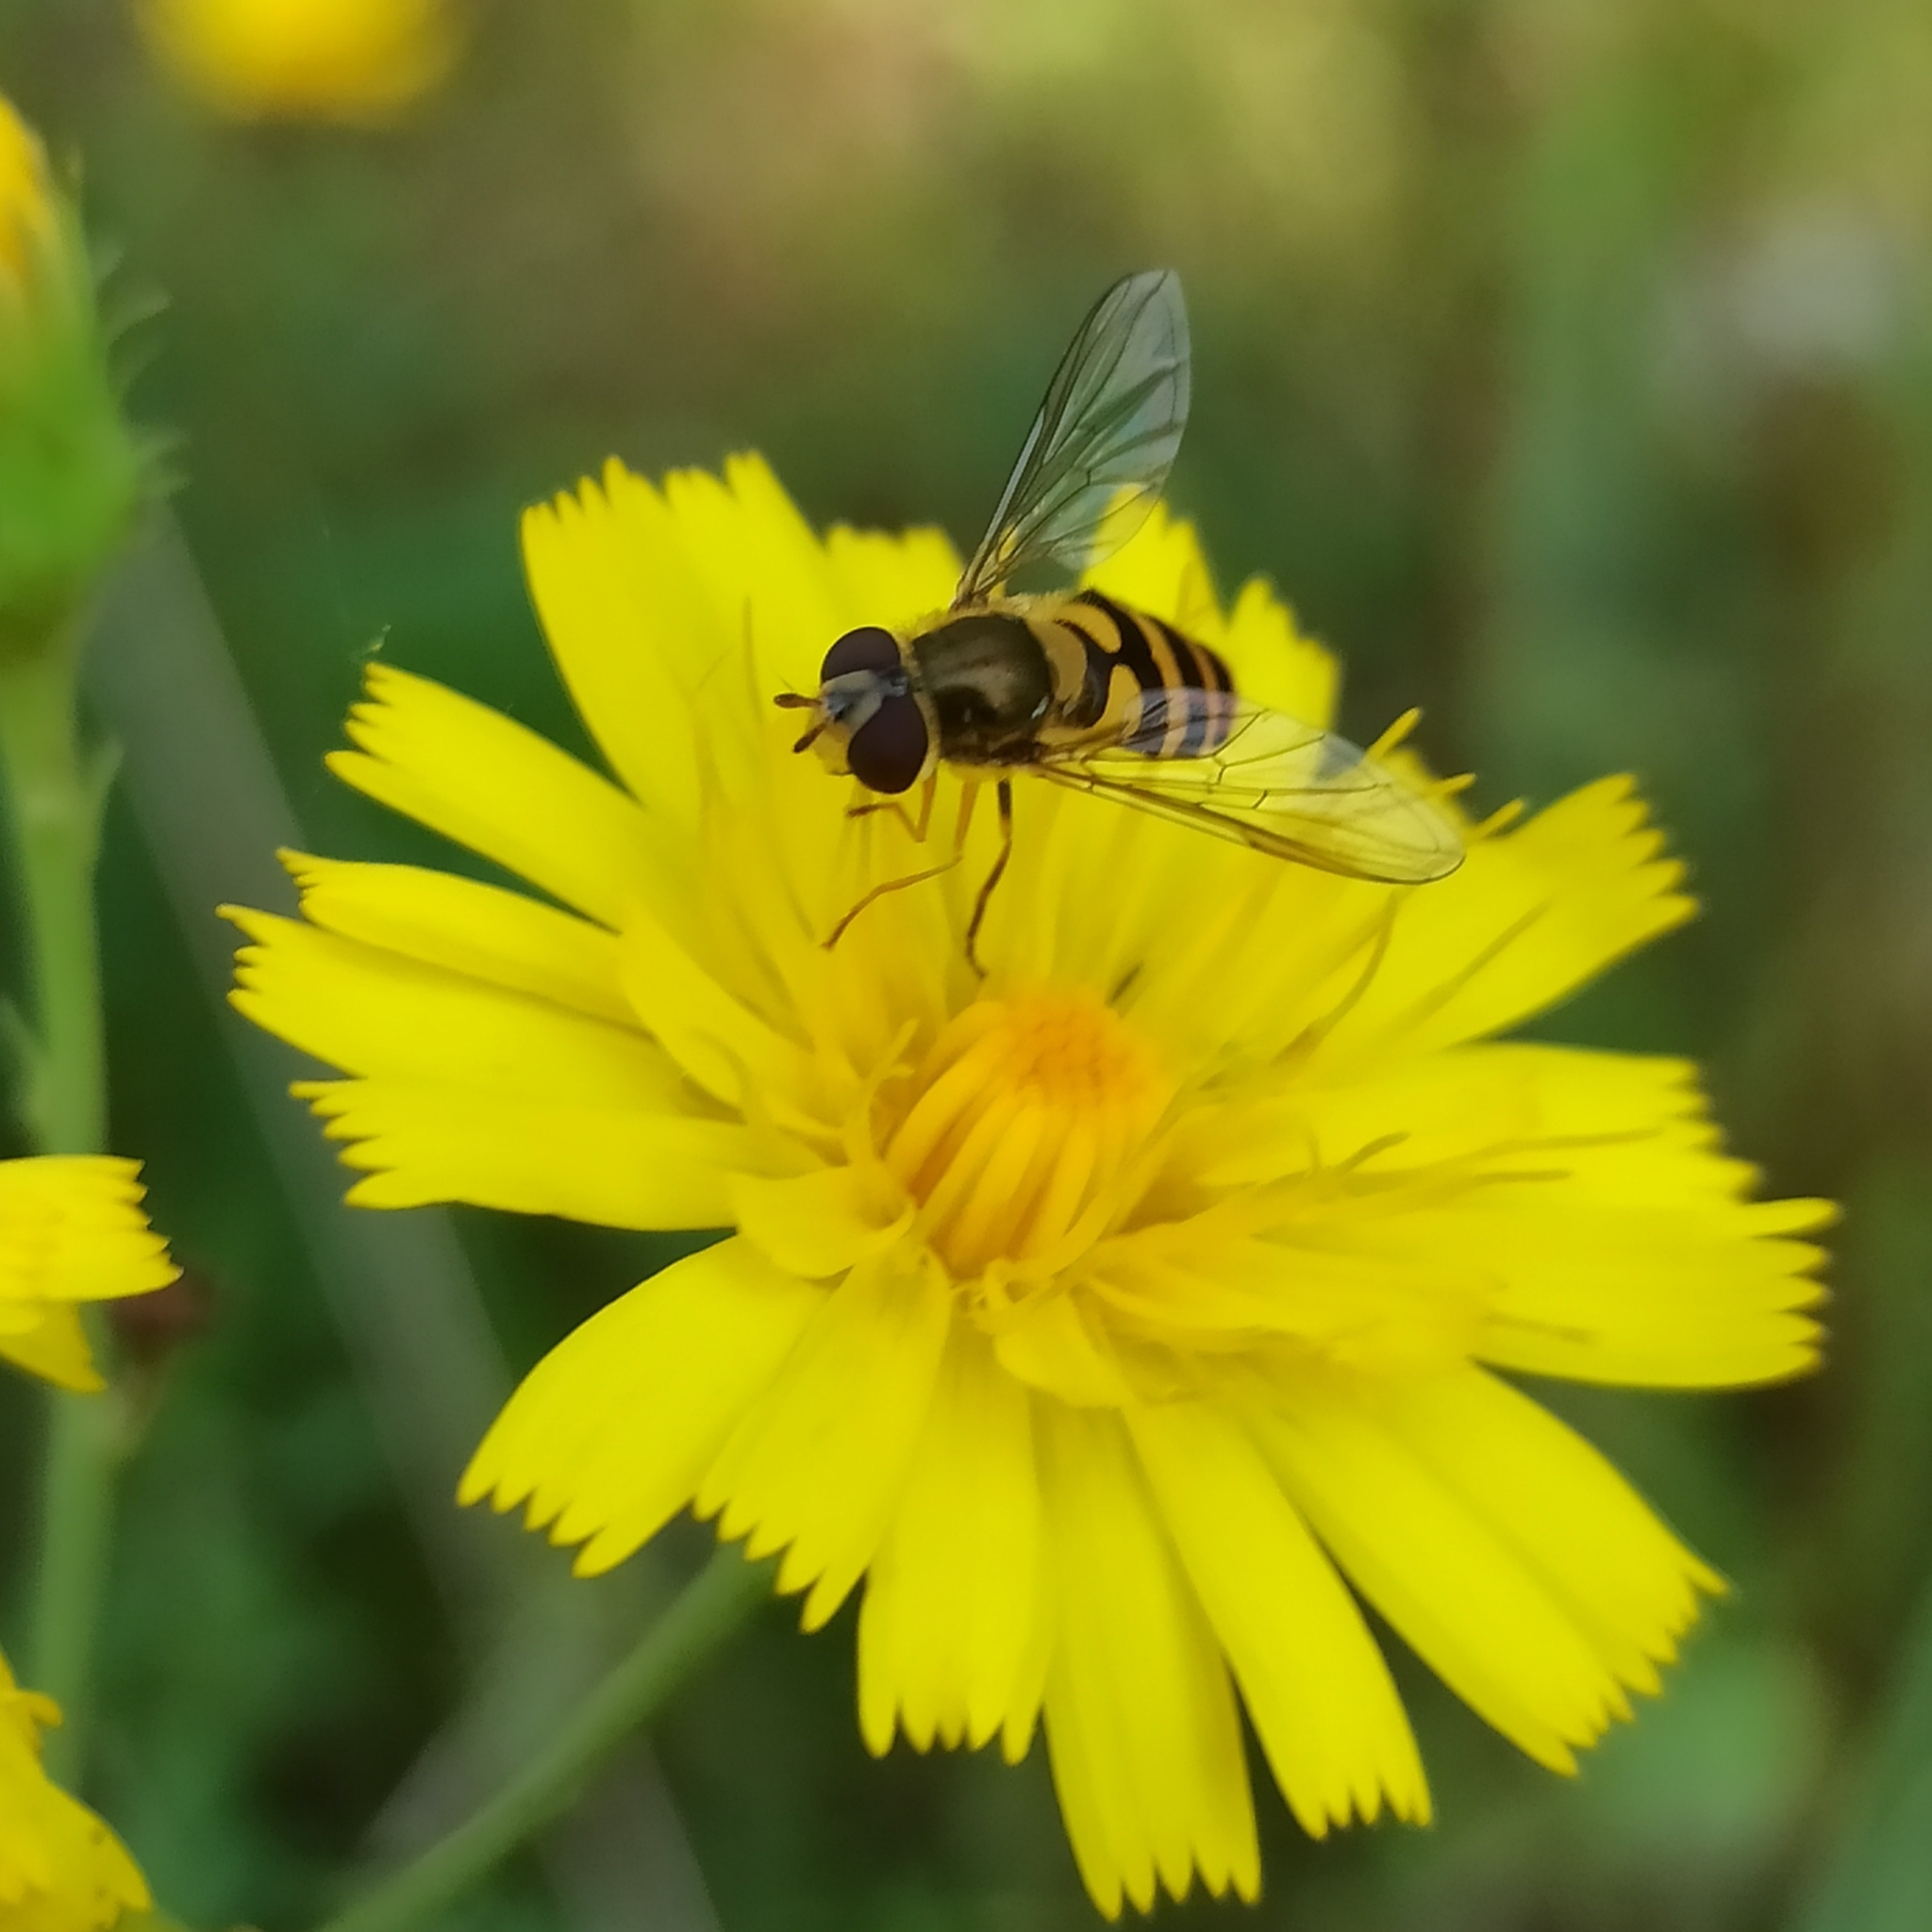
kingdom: Animalia
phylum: Arthropoda
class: Insecta
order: Diptera
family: Syrphidae
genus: Syrphus
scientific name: Syrphus
